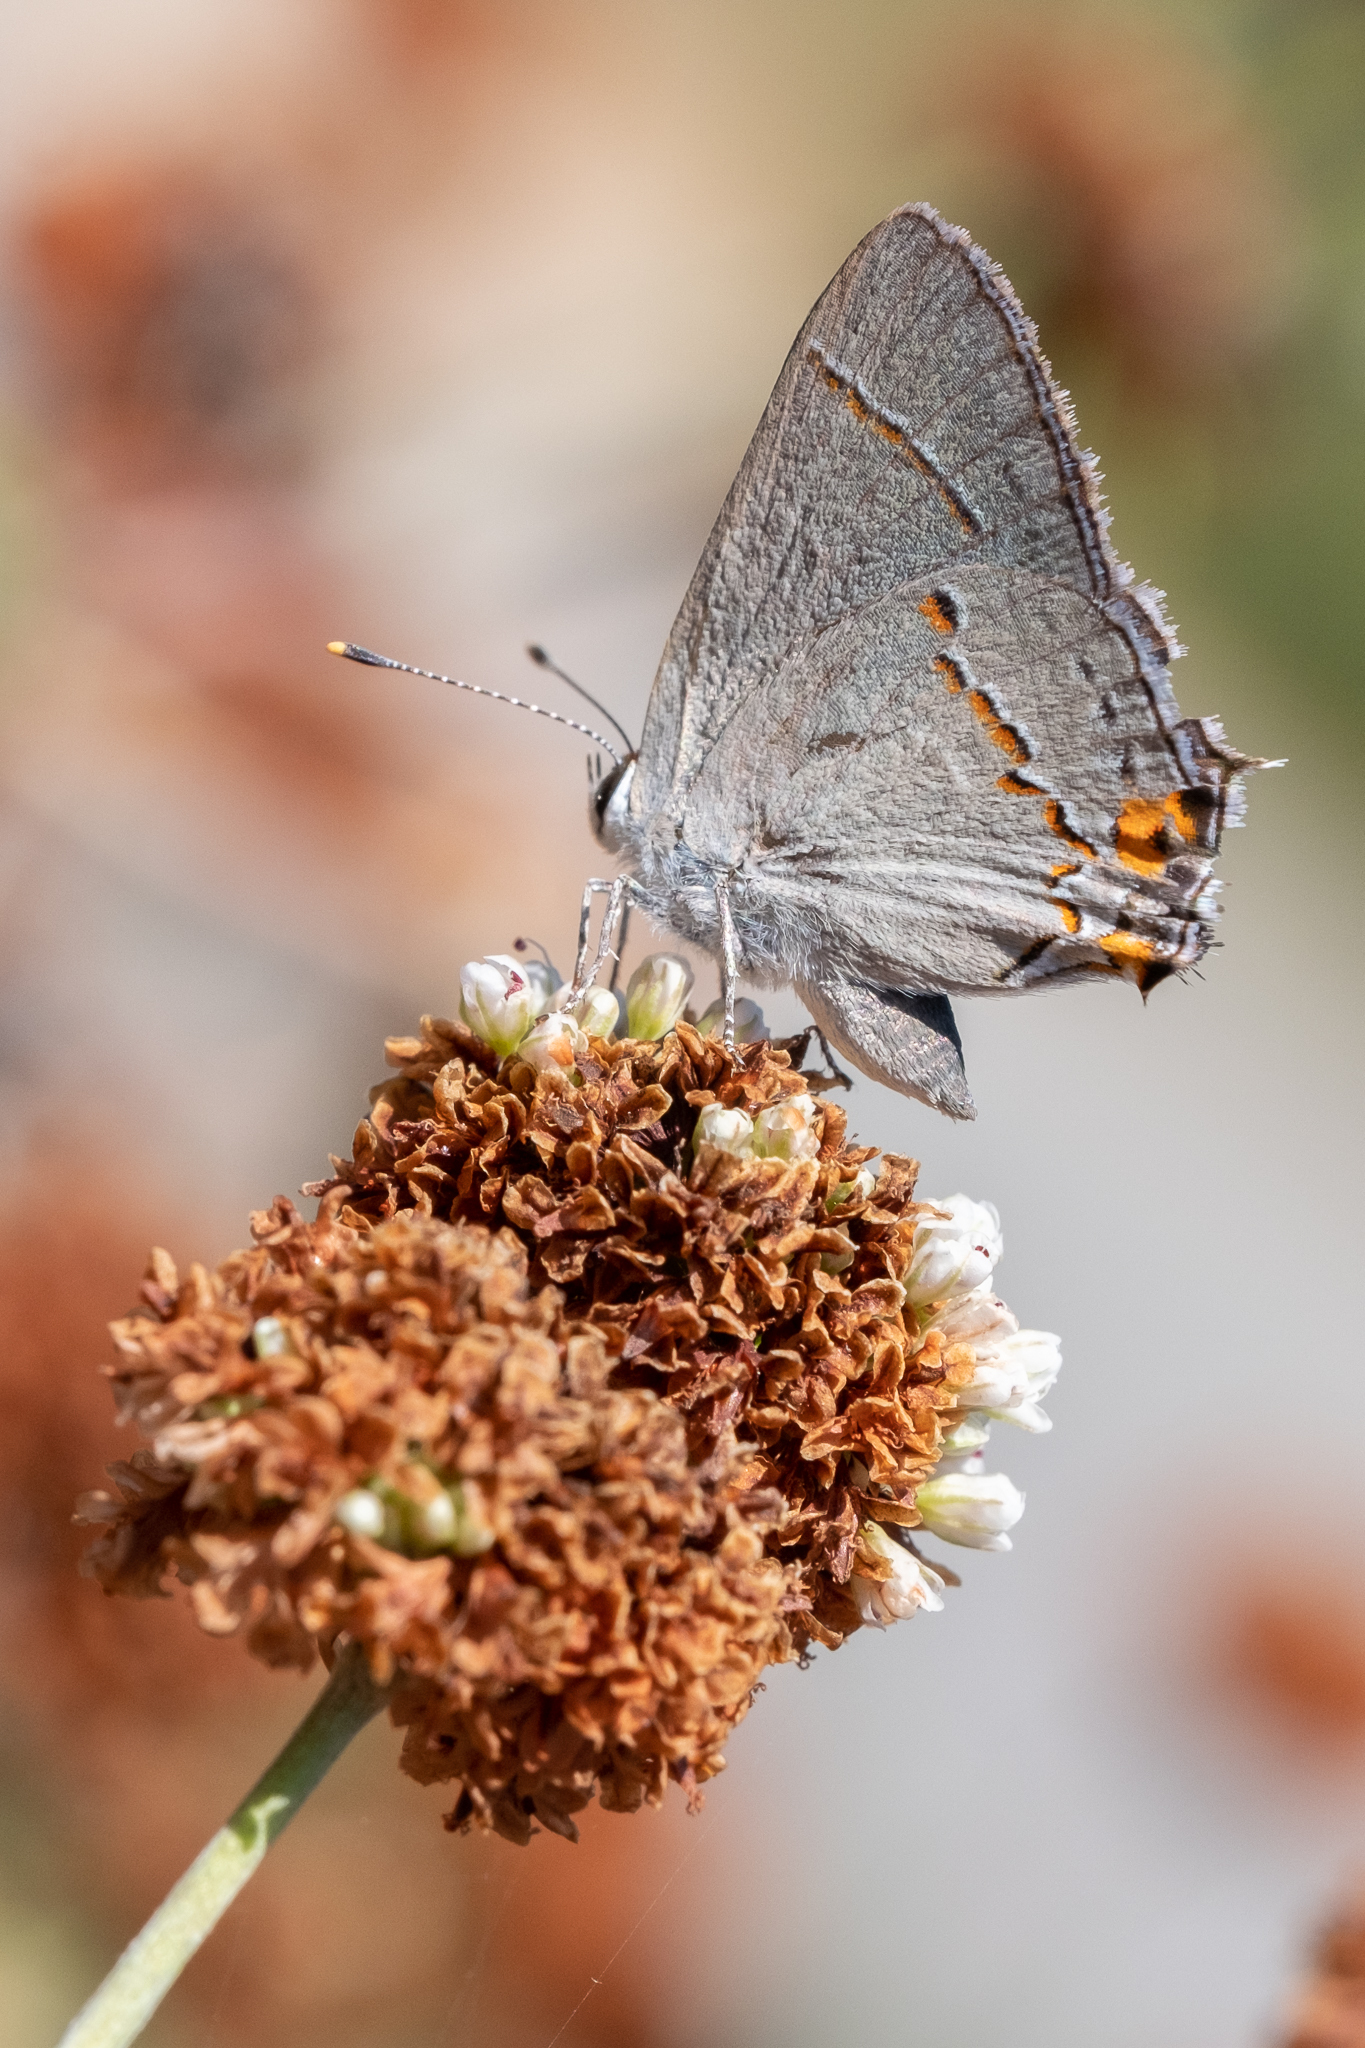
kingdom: Animalia
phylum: Arthropoda
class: Insecta
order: Lepidoptera
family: Lycaenidae
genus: Strymon
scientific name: Strymon melinus
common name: Gray hairstreak
